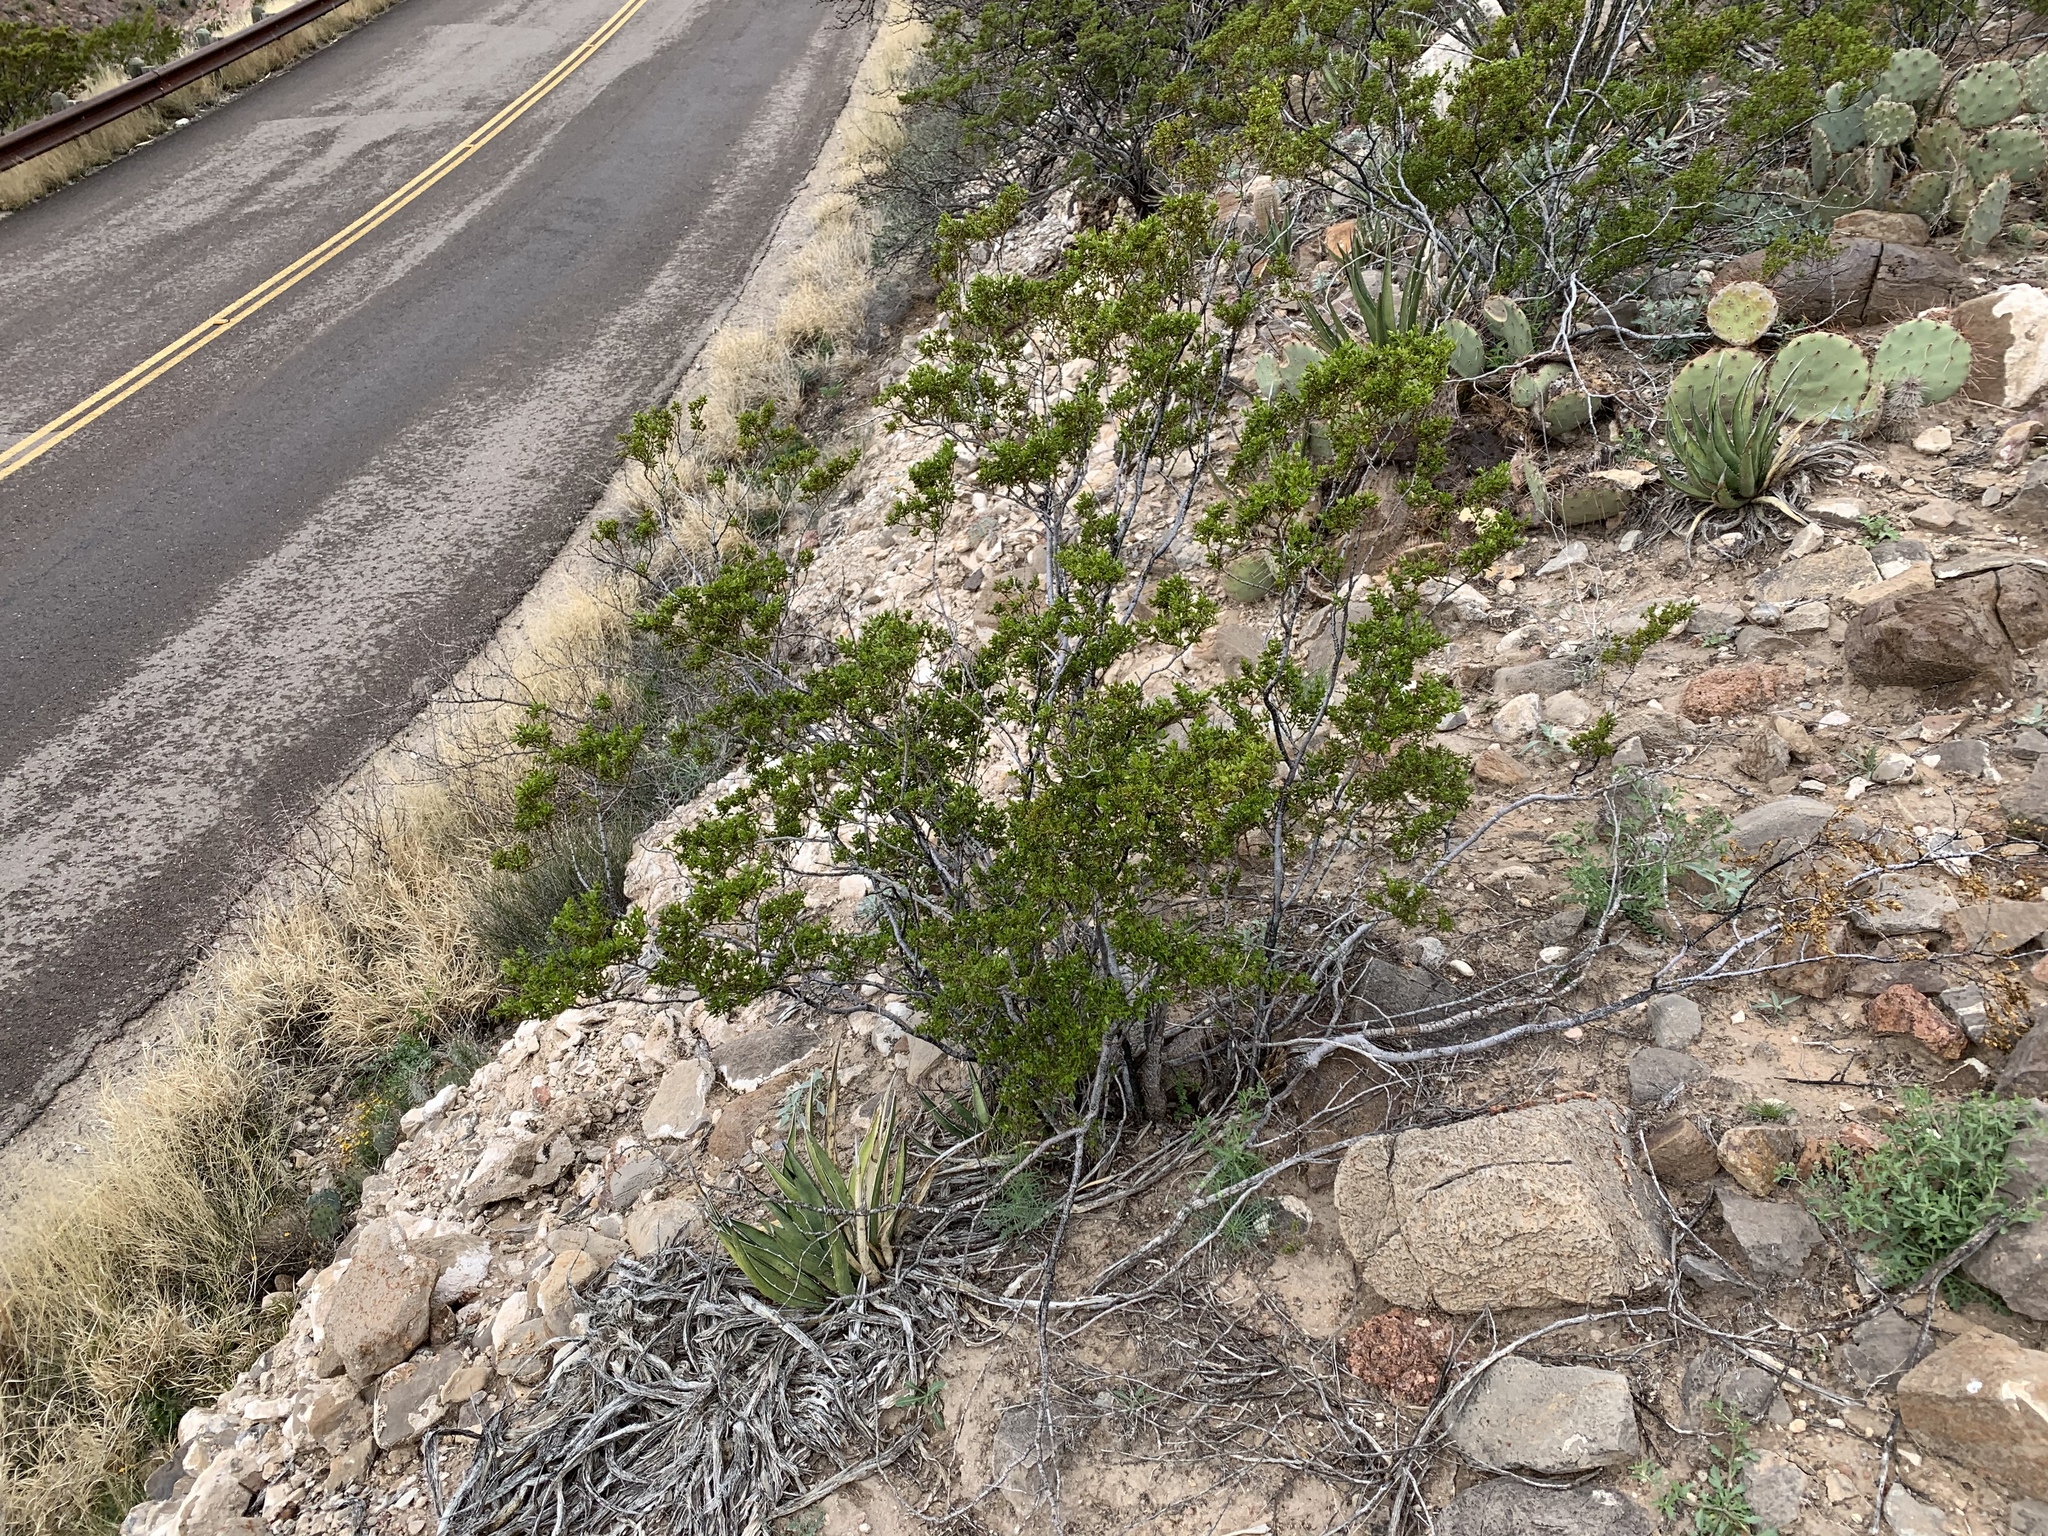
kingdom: Plantae
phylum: Tracheophyta
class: Magnoliopsida
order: Zygophyllales
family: Zygophyllaceae
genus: Larrea
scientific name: Larrea tridentata
